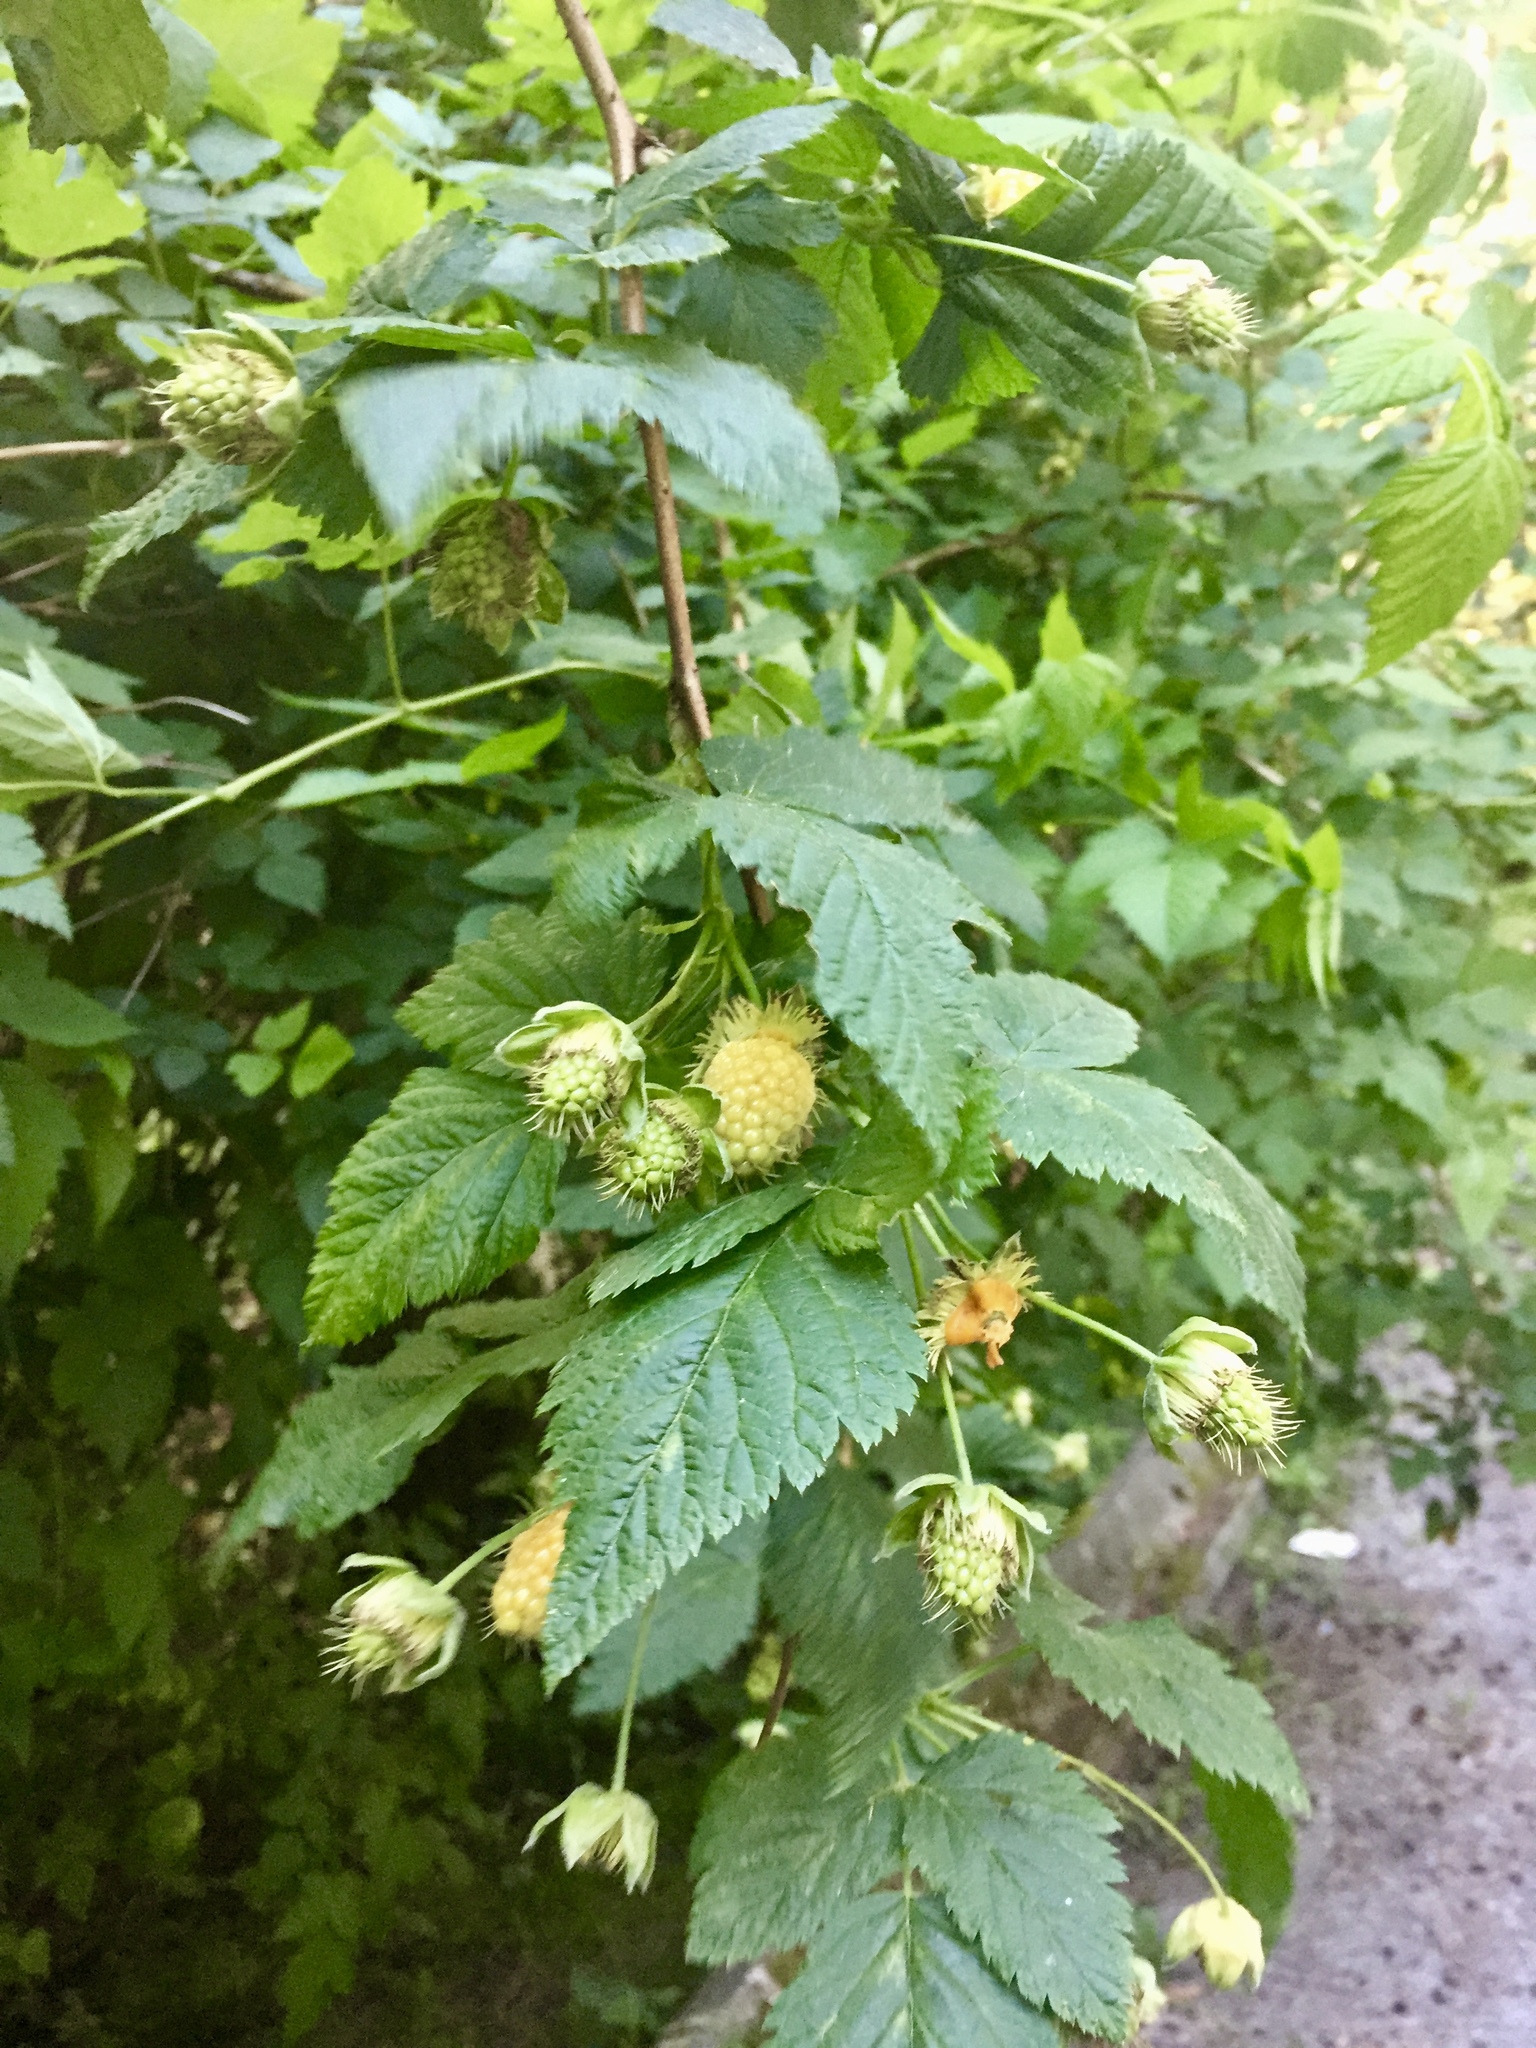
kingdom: Plantae
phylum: Tracheophyta
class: Magnoliopsida
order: Rosales
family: Rosaceae
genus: Rubus
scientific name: Rubus spectabilis
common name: Salmonberry
